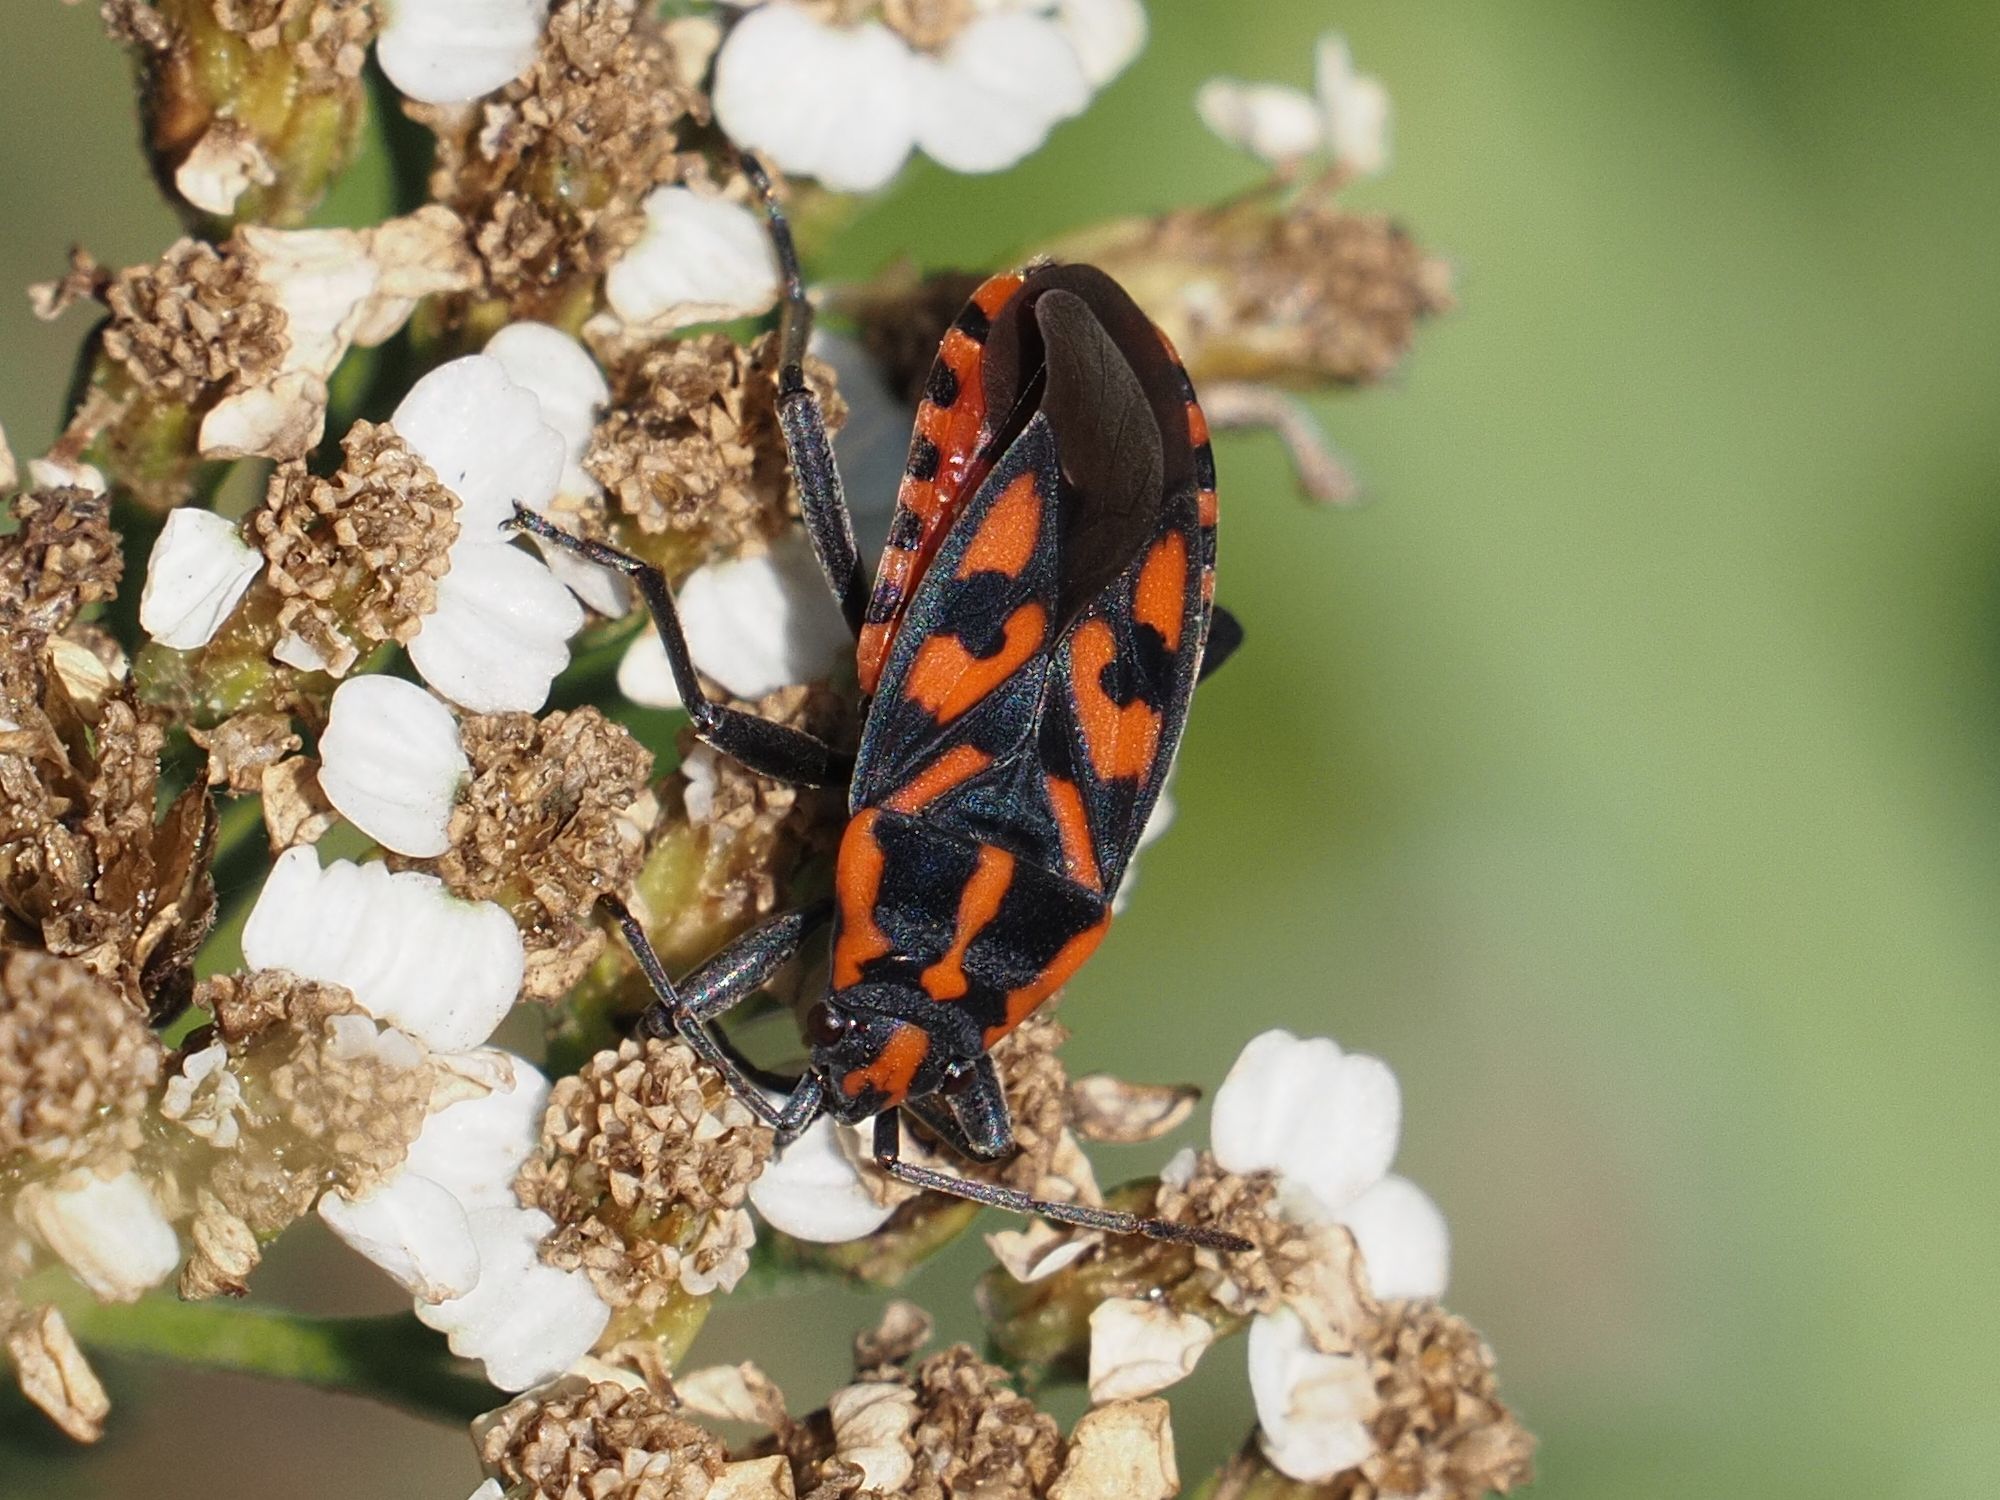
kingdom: Animalia
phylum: Arthropoda
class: Insecta
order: Hemiptera
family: Lygaeidae
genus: Spilostethus
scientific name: Spilostethus saxatilis
